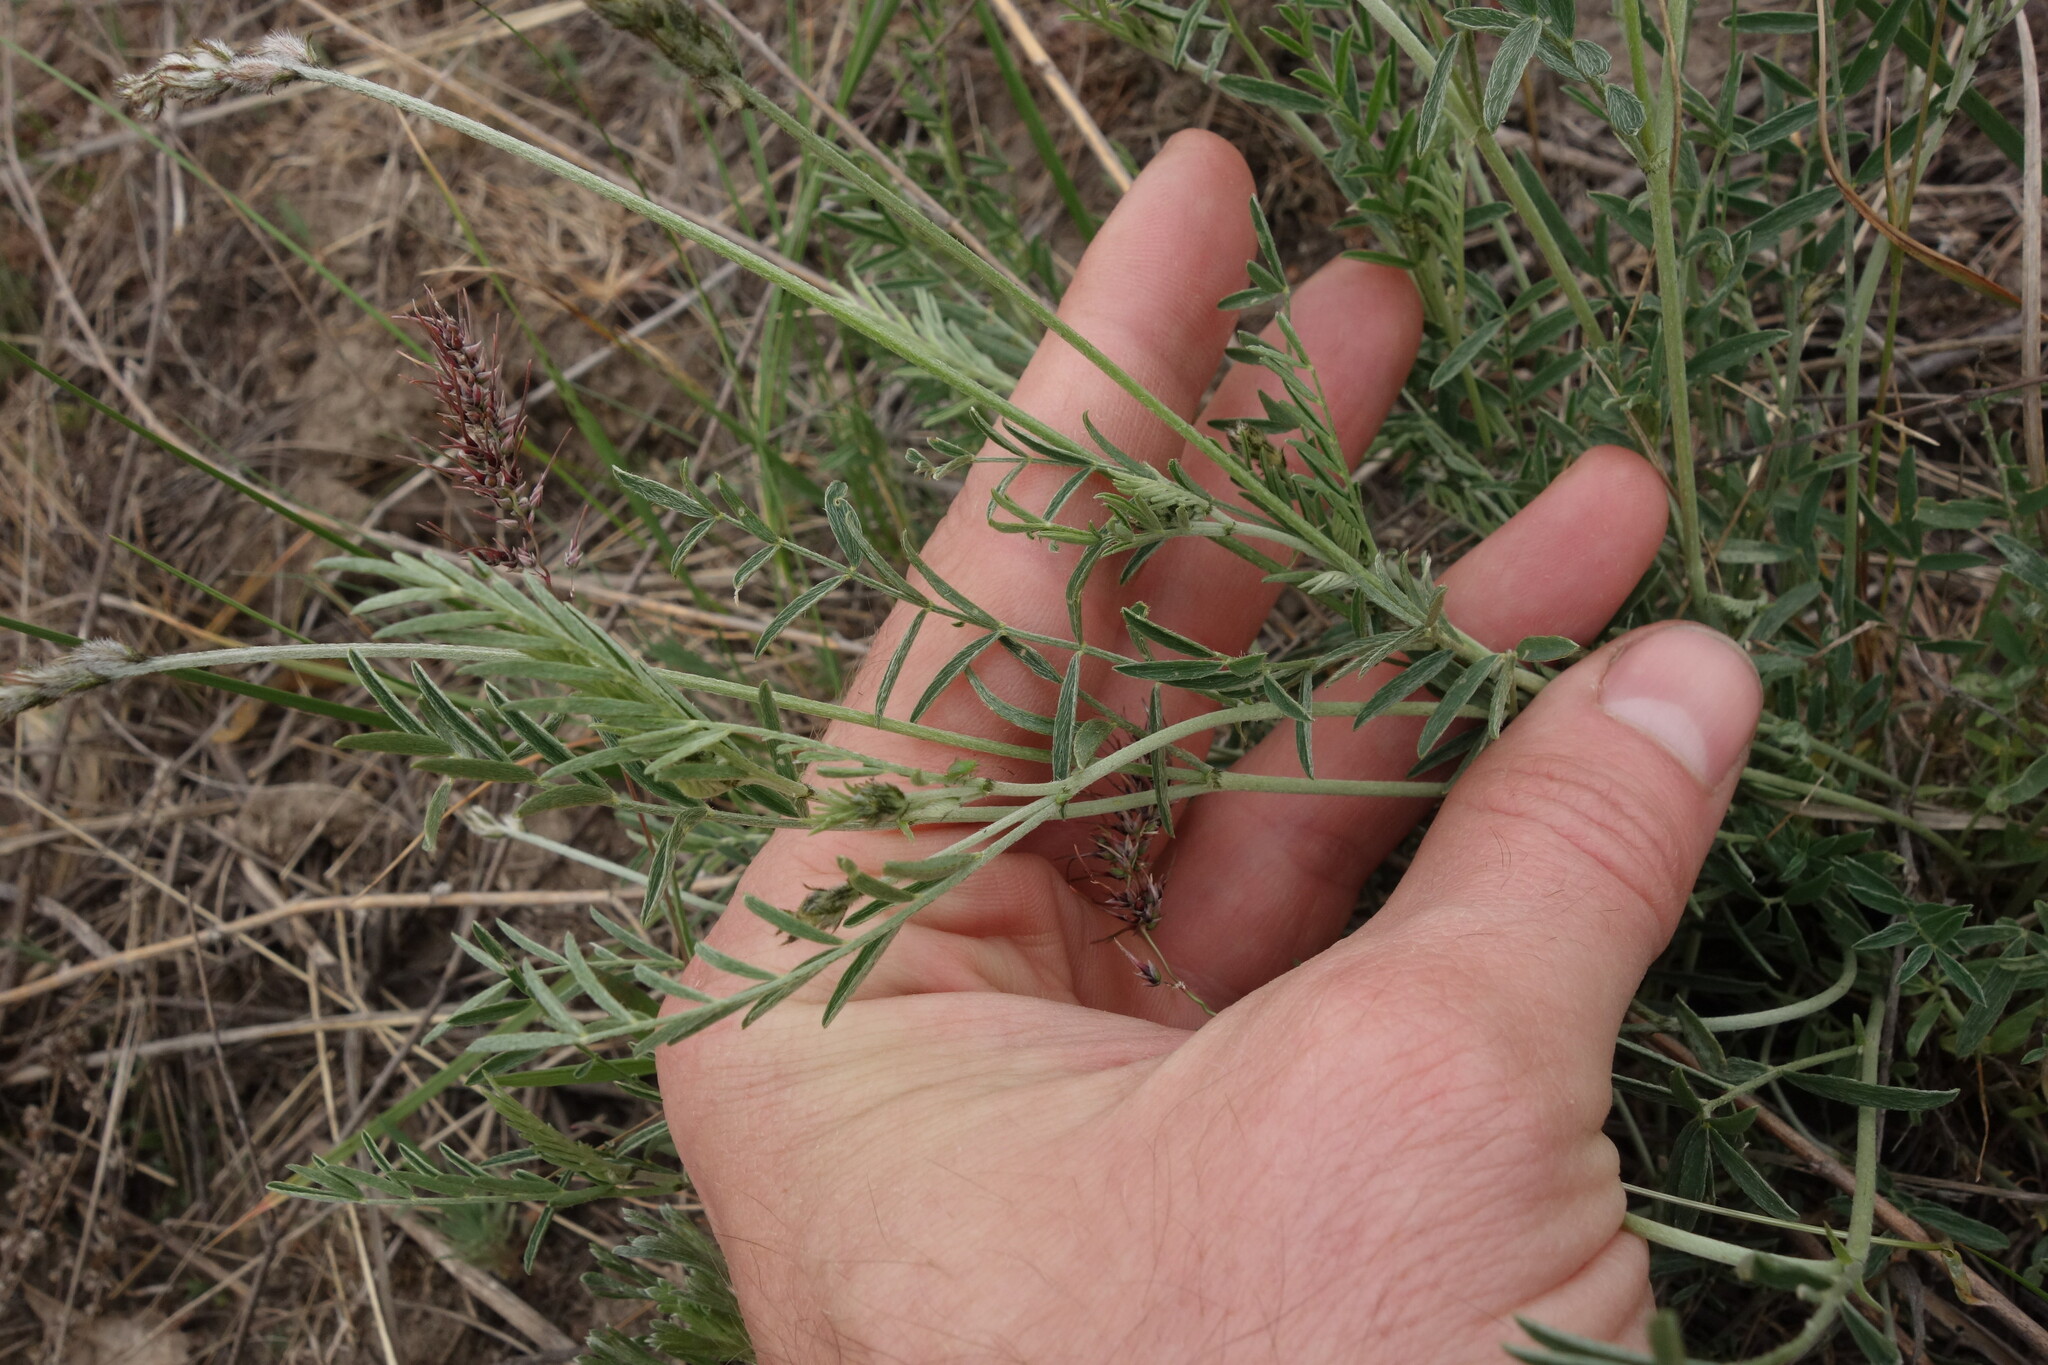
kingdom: Plantae
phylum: Tracheophyta
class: Magnoliopsida
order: Fabales
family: Fabaceae
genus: Astragalus
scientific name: Astragalus varius
